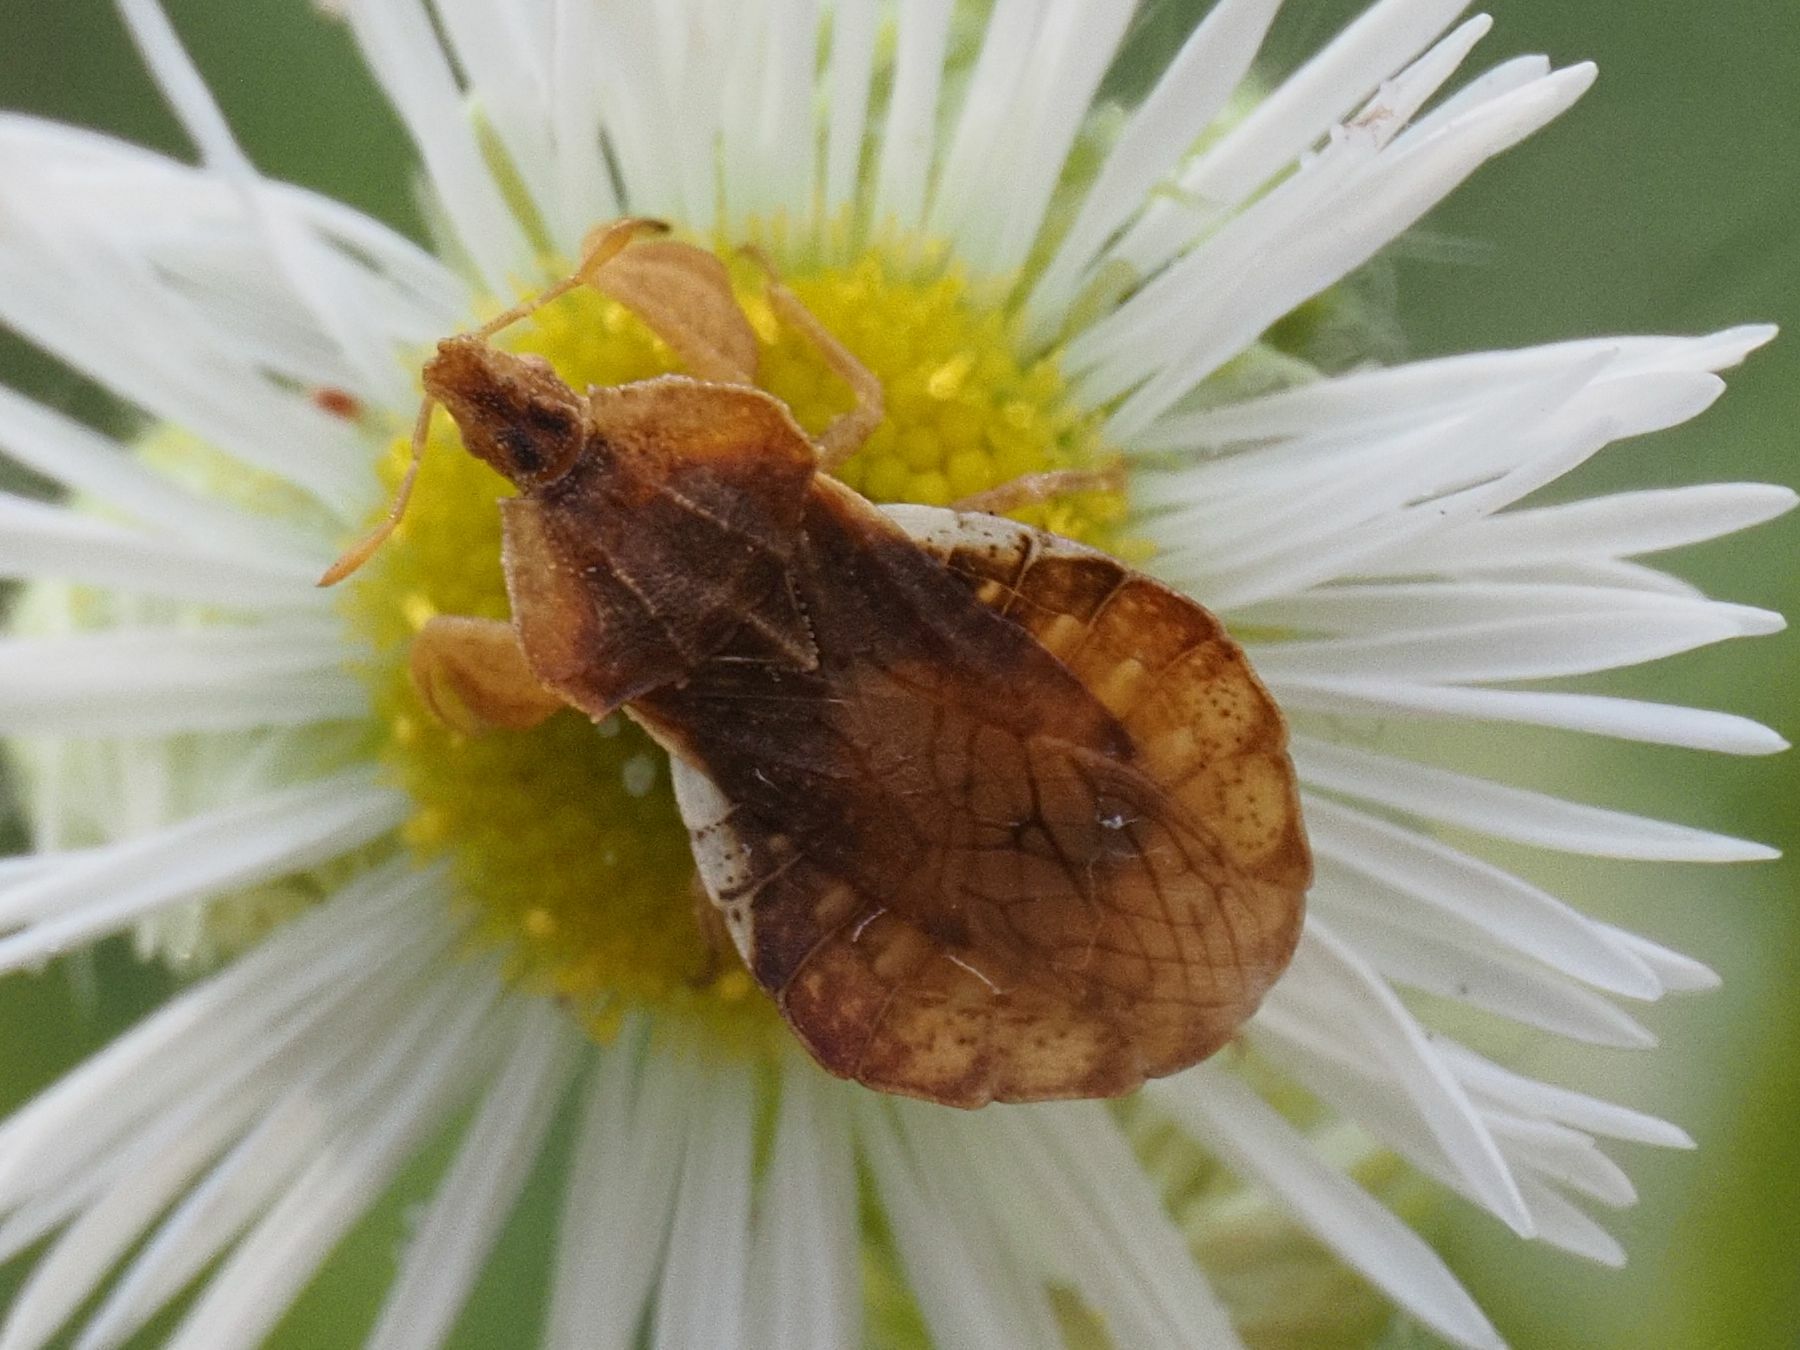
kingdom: Animalia
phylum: Arthropoda
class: Insecta
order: Hemiptera
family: Reduviidae
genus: Phymata
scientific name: Phymata crassipes
